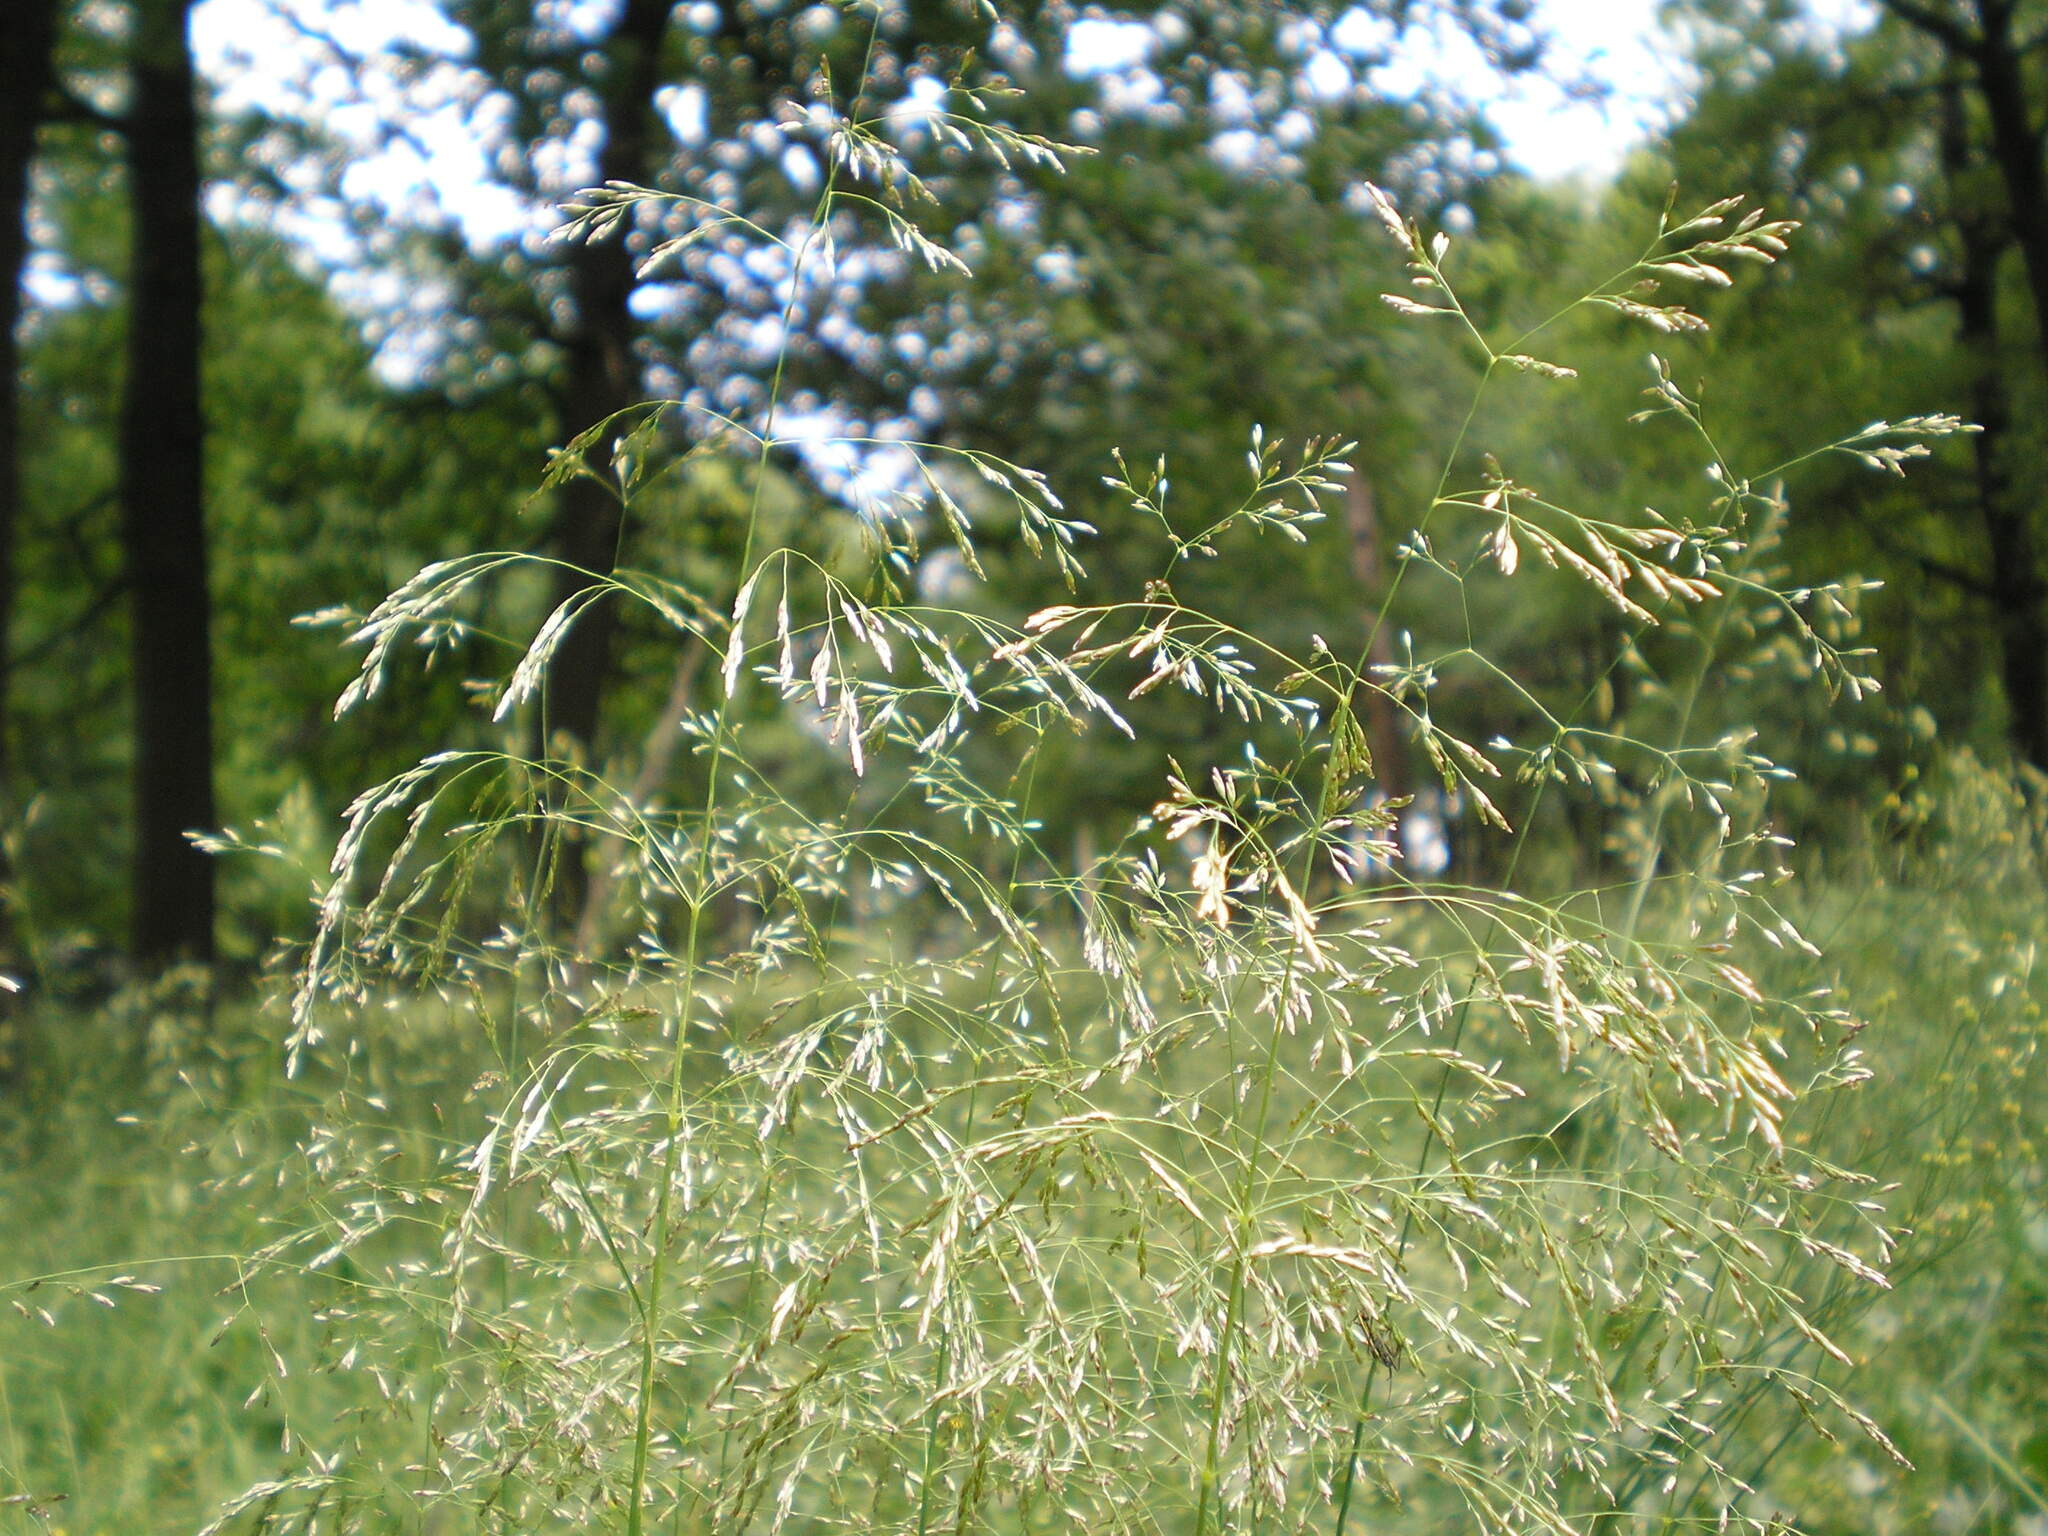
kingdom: Plantae
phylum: Tracheophyta
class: Liliopsida
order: Poales
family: Poaceae
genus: Deschampsia
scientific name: Deschampsia cespitosa
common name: Tufted hair-grass
